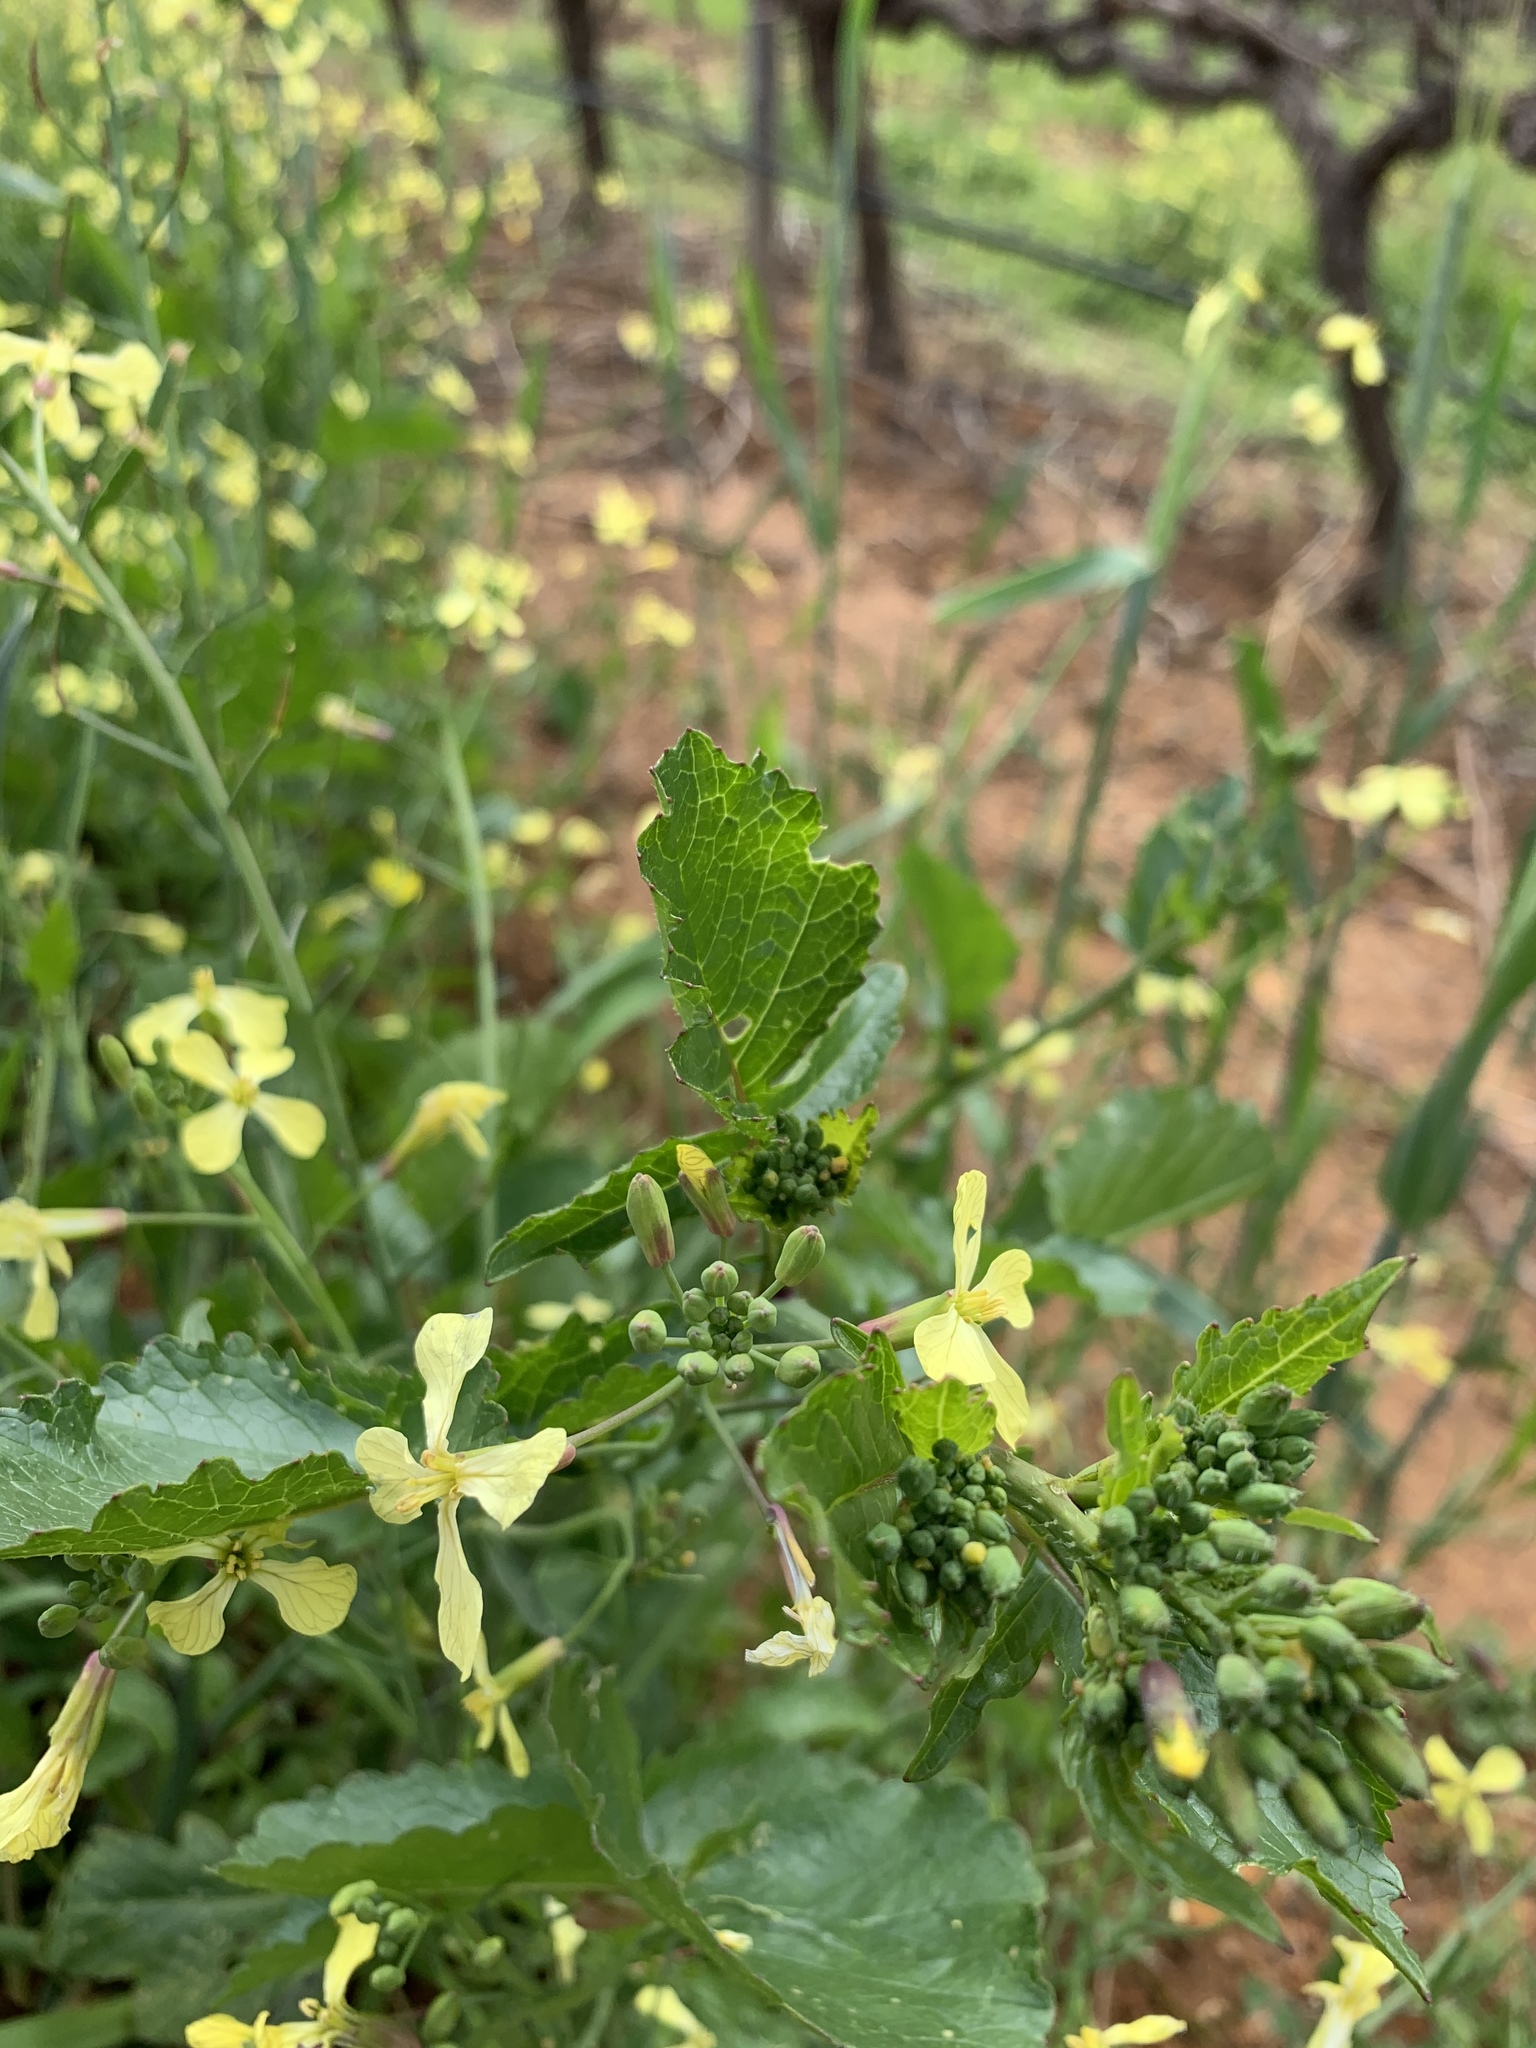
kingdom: Plantae
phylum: Tracheophyta
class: Magnoliopsida
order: Brassicales
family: Brassicaceae
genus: Raphanus
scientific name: Raphanus raphanistrum
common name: Wild radish
